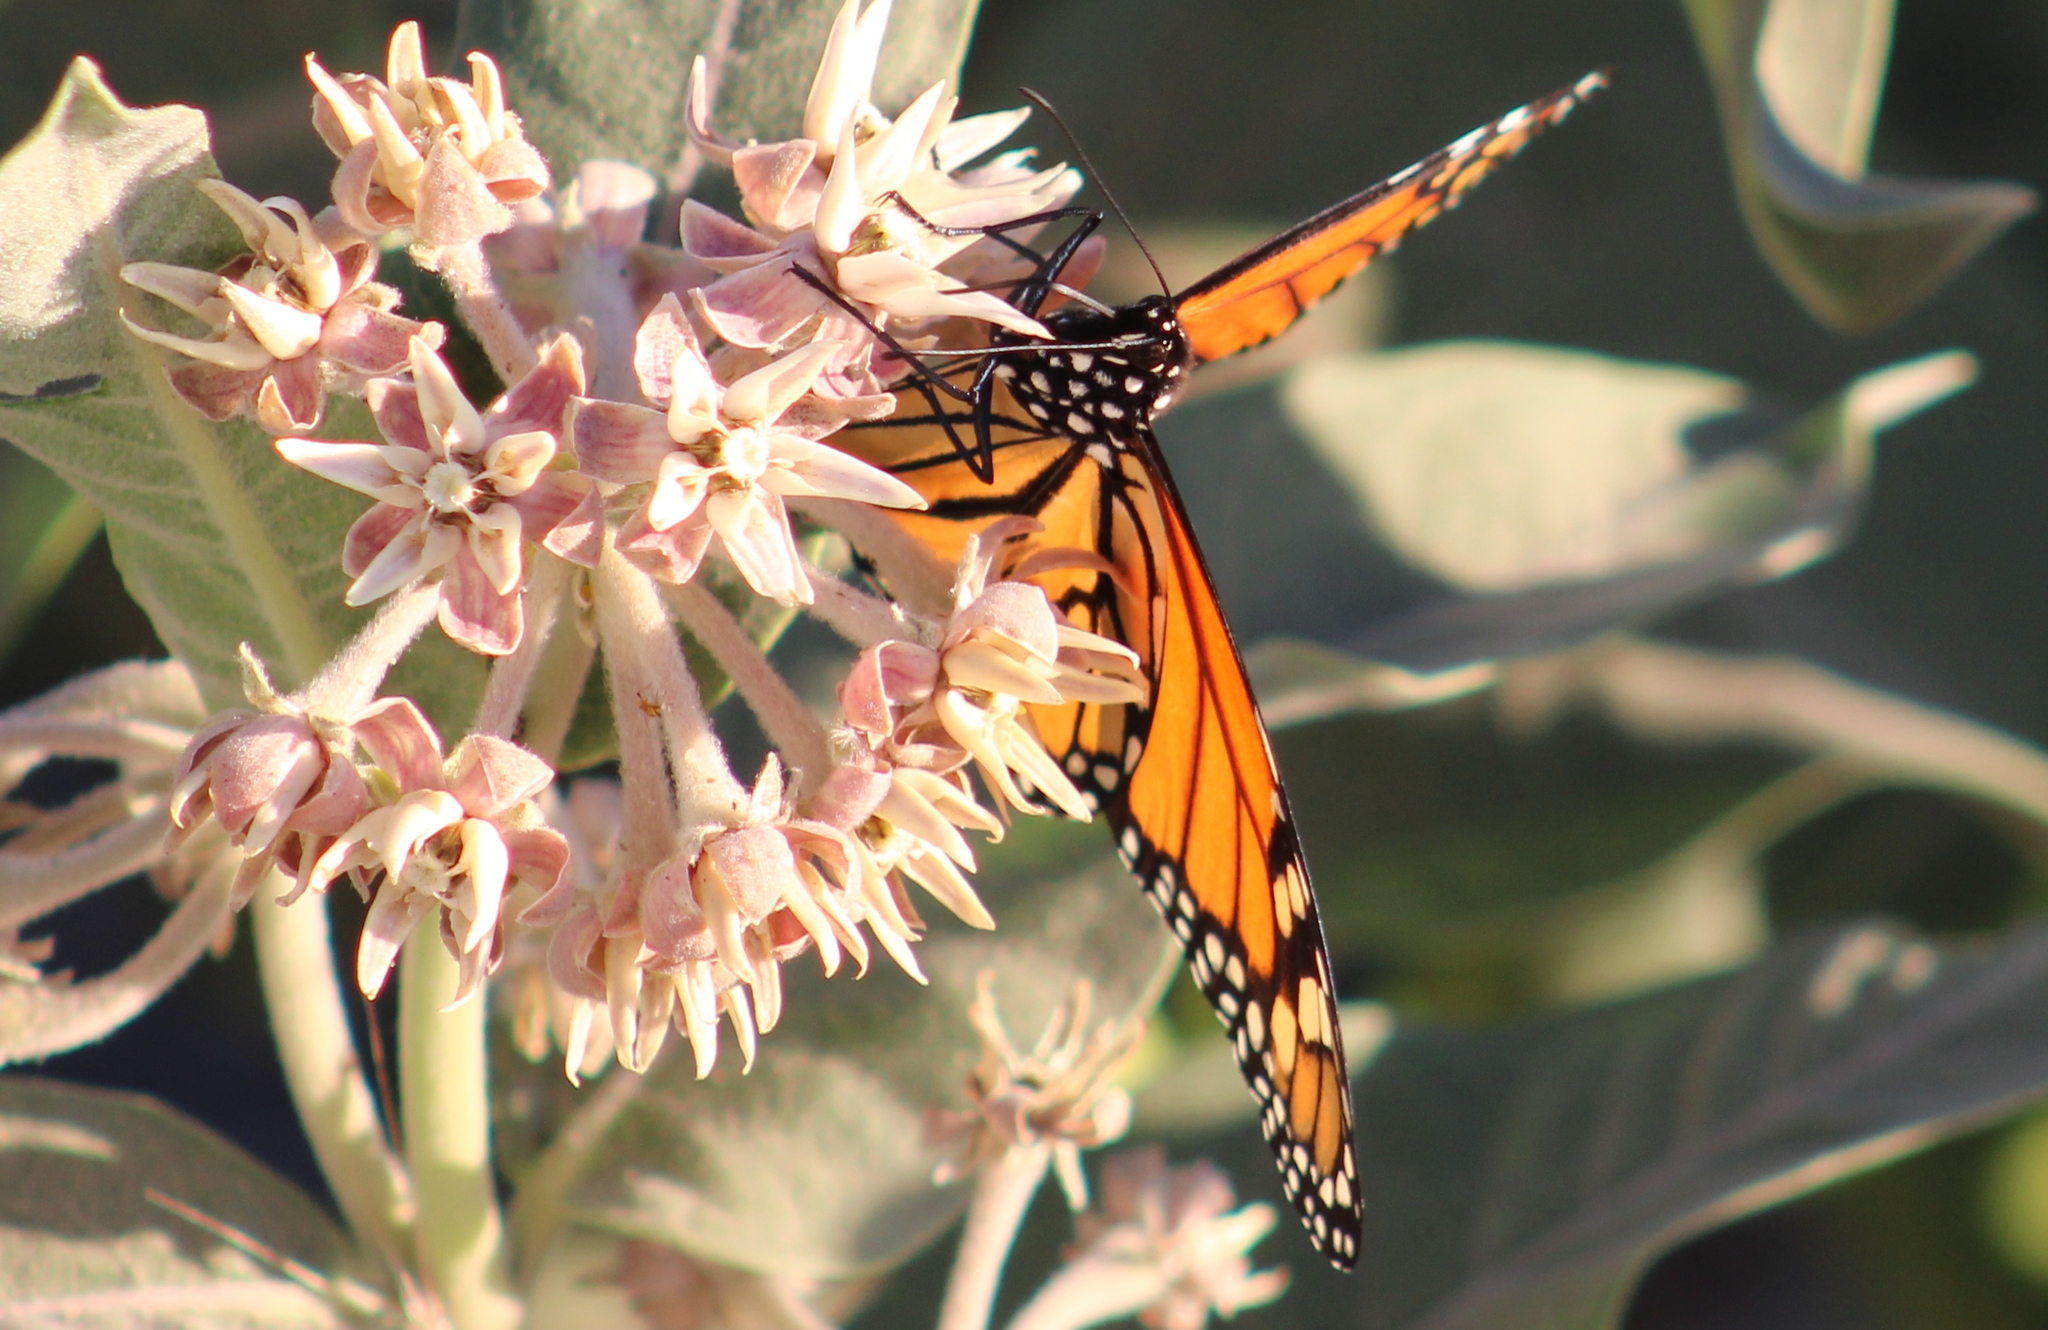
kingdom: Animalia
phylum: Arthropoda
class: Insecta
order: Lepidoptera
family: Nymphalidae
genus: Danaus
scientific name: Danaus plexippus
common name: Monarch
